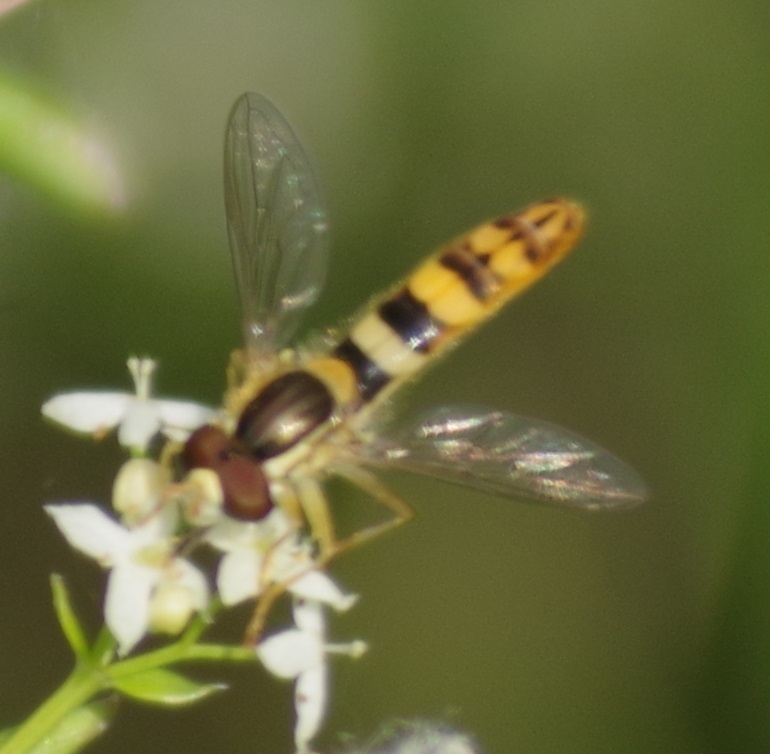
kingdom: Animalia
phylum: Arthropoda
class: Insecta
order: Diptera
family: Syrphidae
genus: Sphaerophoria
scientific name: Sphaerophoria
